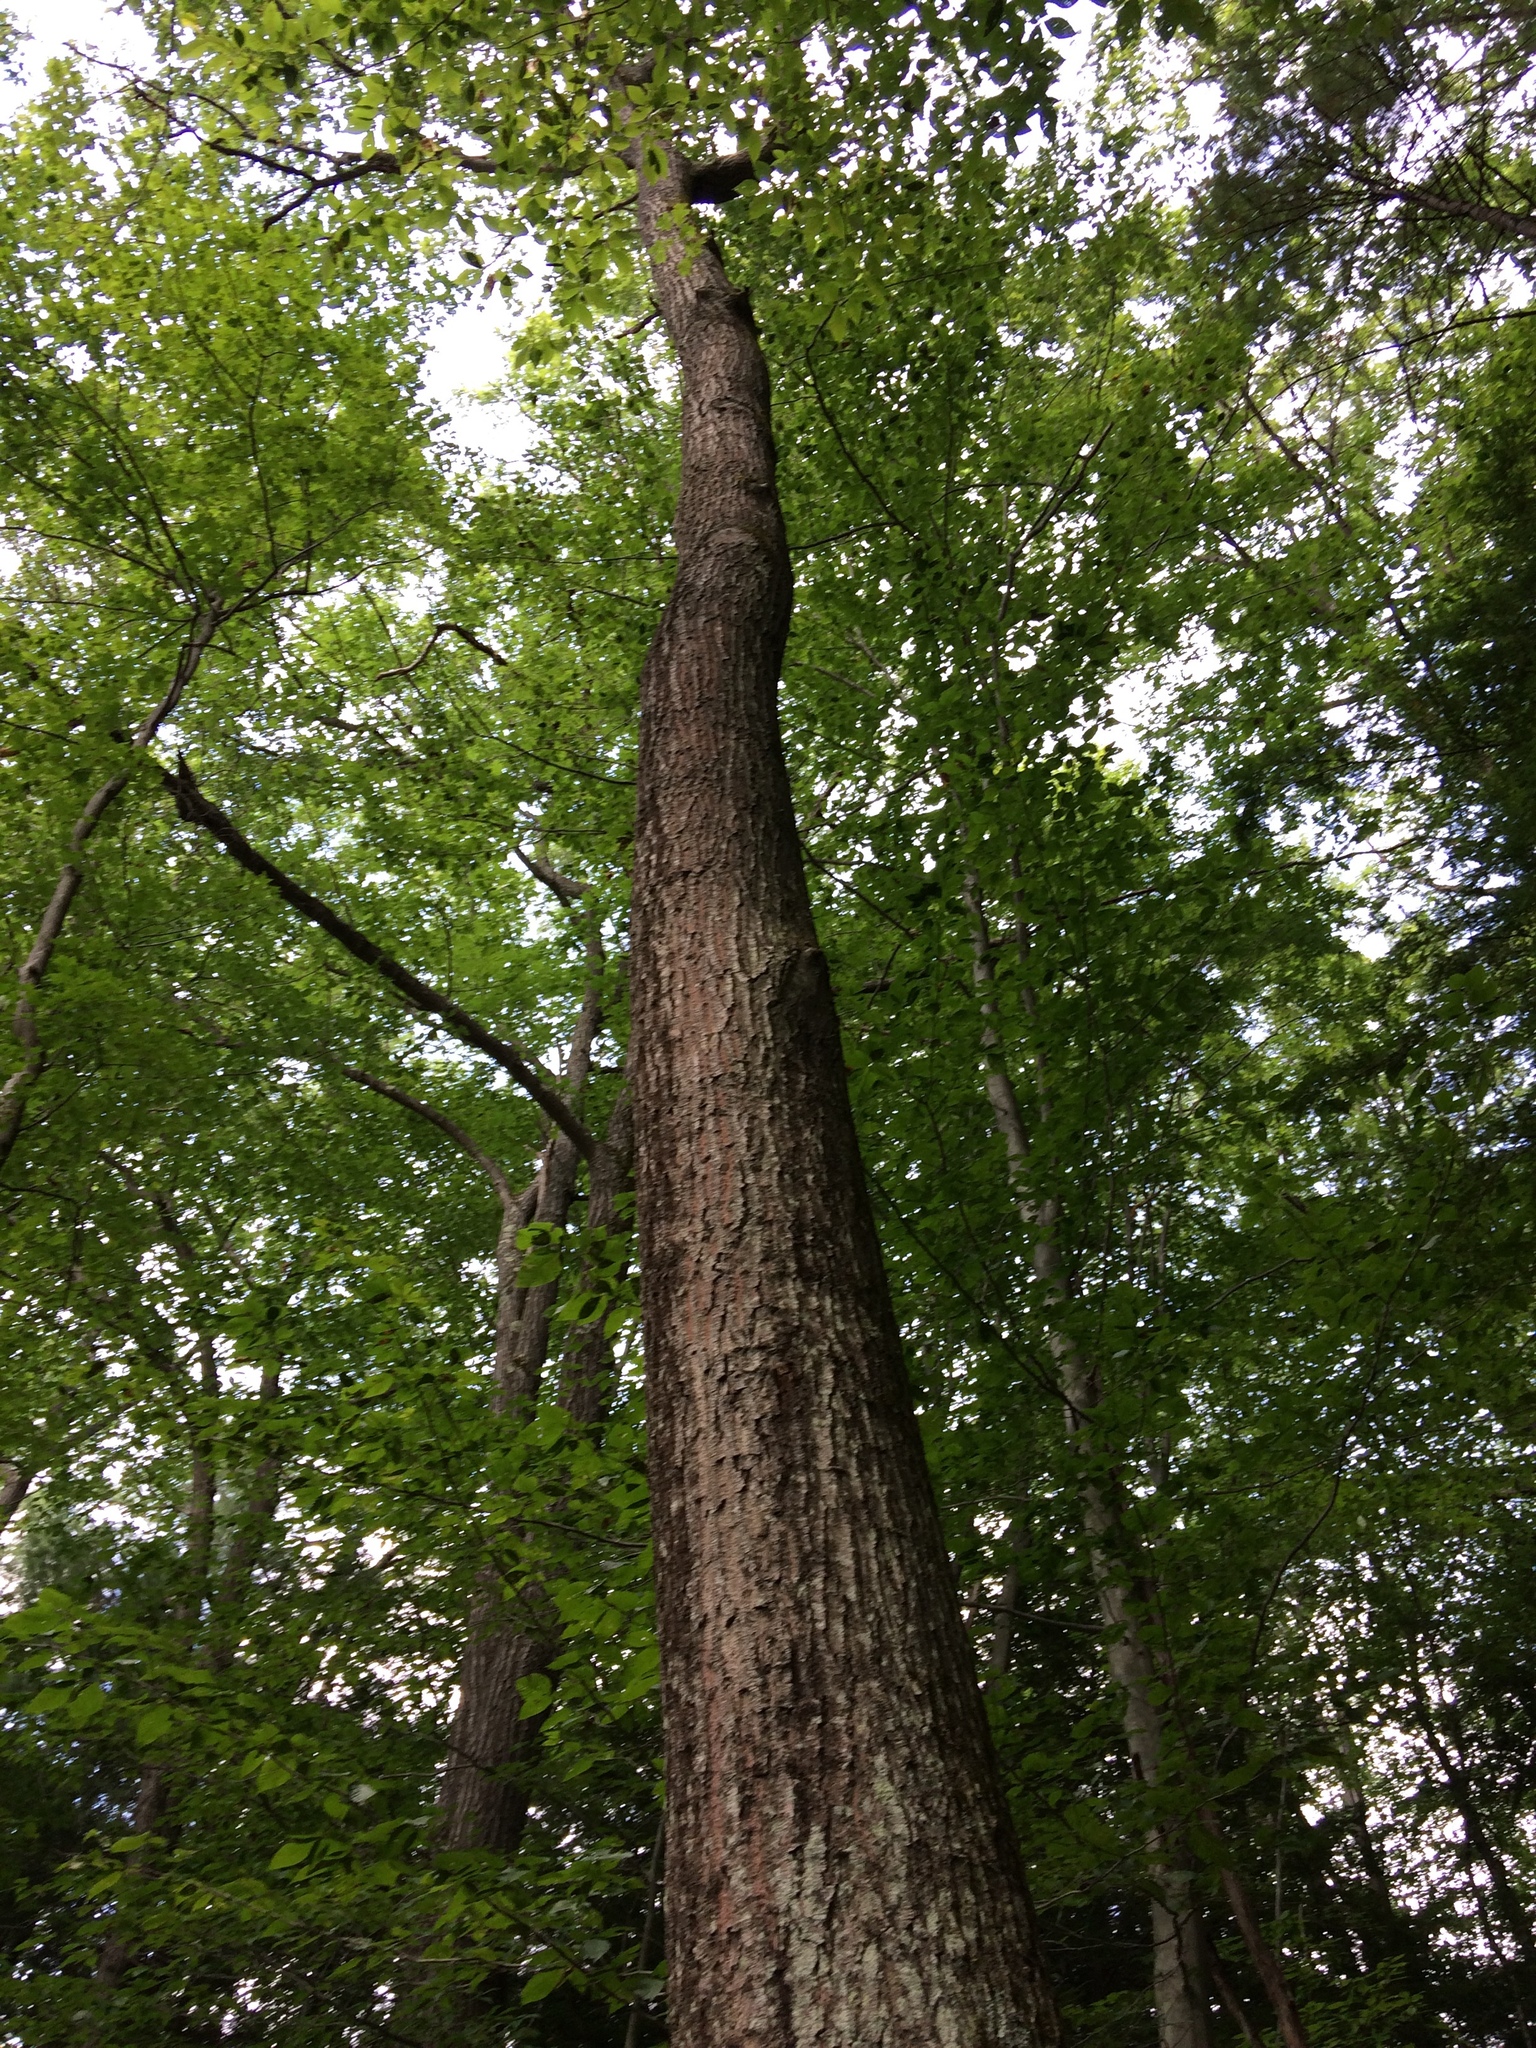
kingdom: Plantae
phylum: Tracheophyta
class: Magnoliopsida
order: Fagales
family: Fagaceae
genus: Quercus
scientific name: Quercus rubra
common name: Red oak
